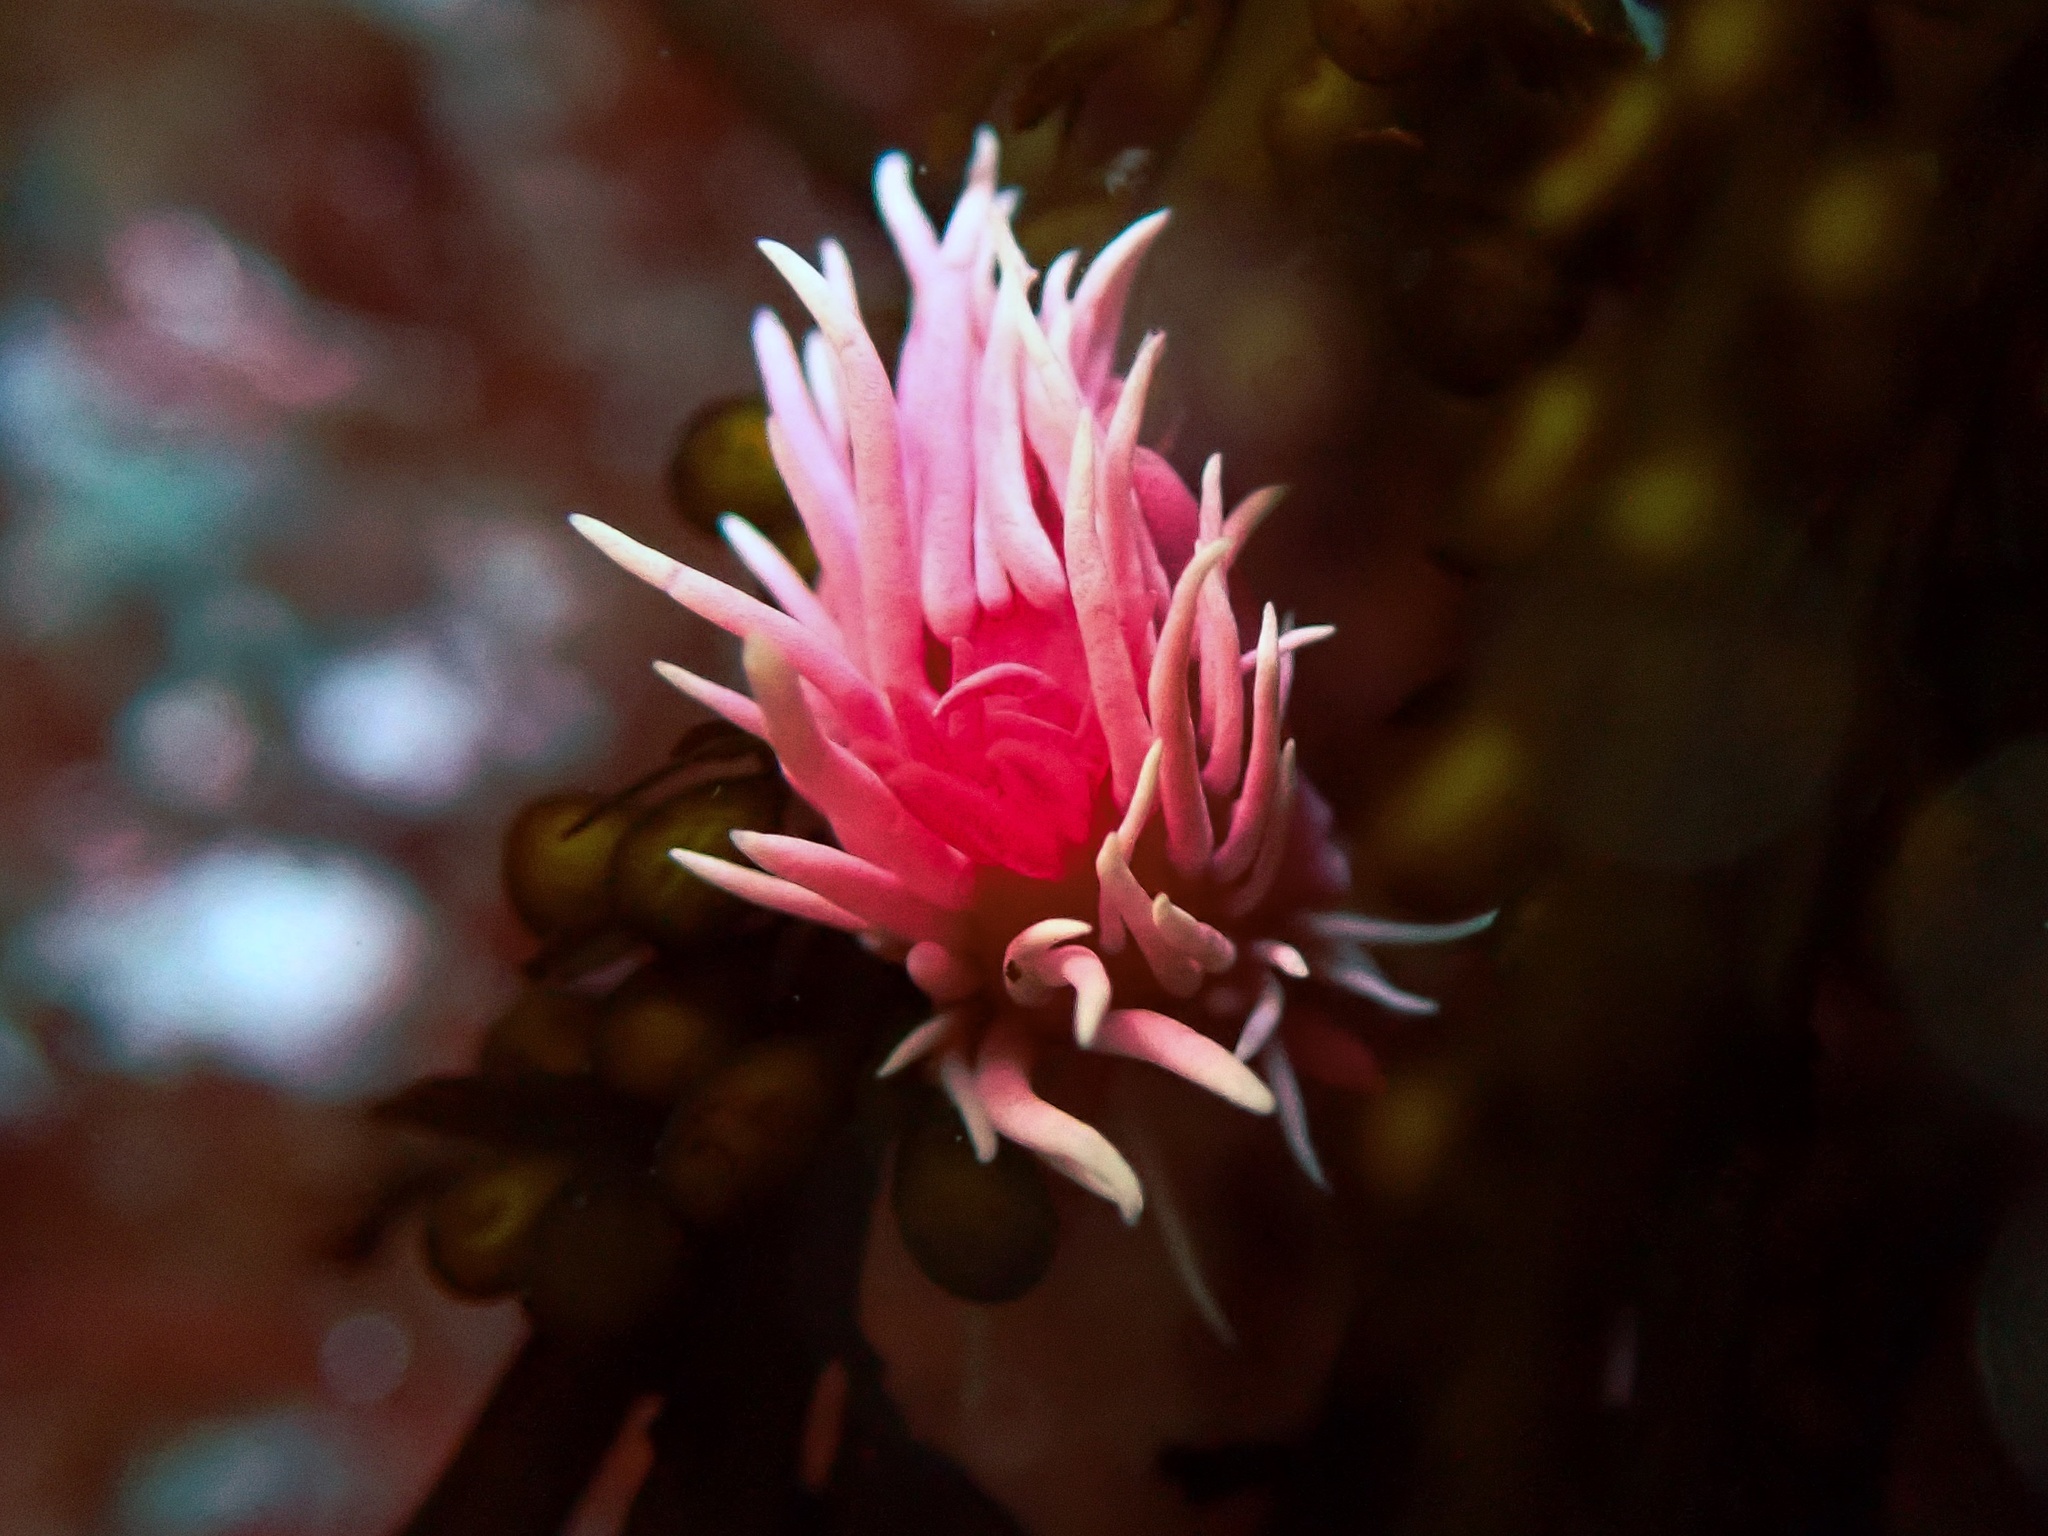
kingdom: Animalia
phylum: Mollusca
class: Gastropoda
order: Nudibranchia
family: Goniodorididae
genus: Okenia
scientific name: Okenia
